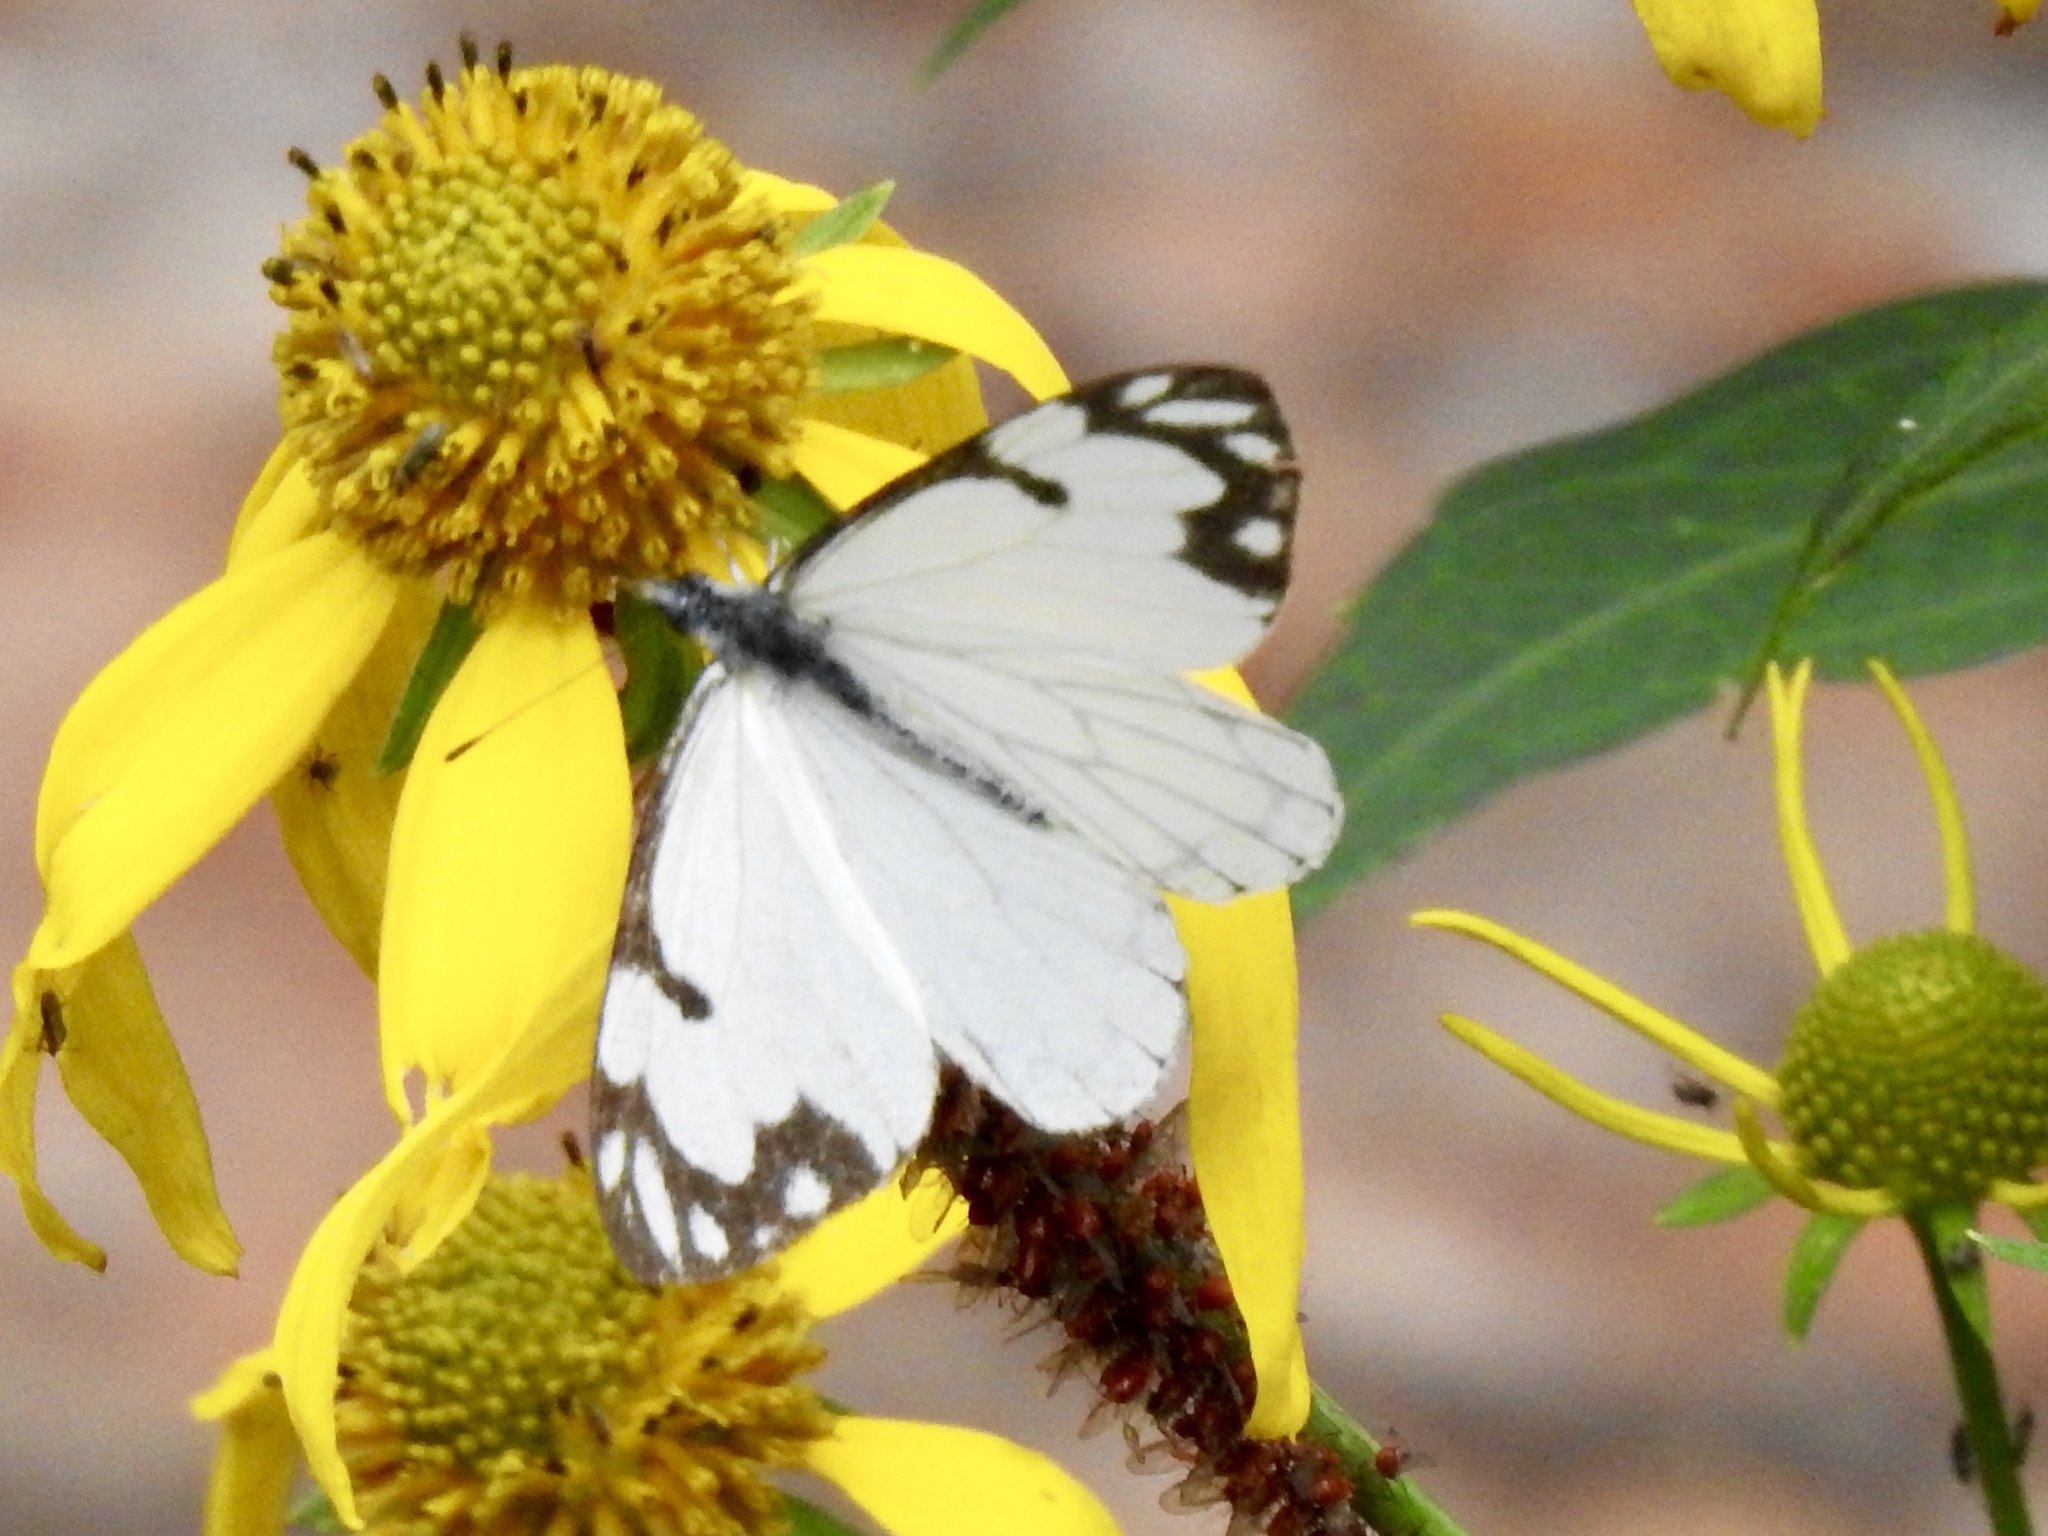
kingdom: Animalia
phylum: Arthropoda
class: Insecta
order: Lepidoptera
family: Pieridae
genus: Neophasia
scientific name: Neophasia menapia
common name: Pine white
